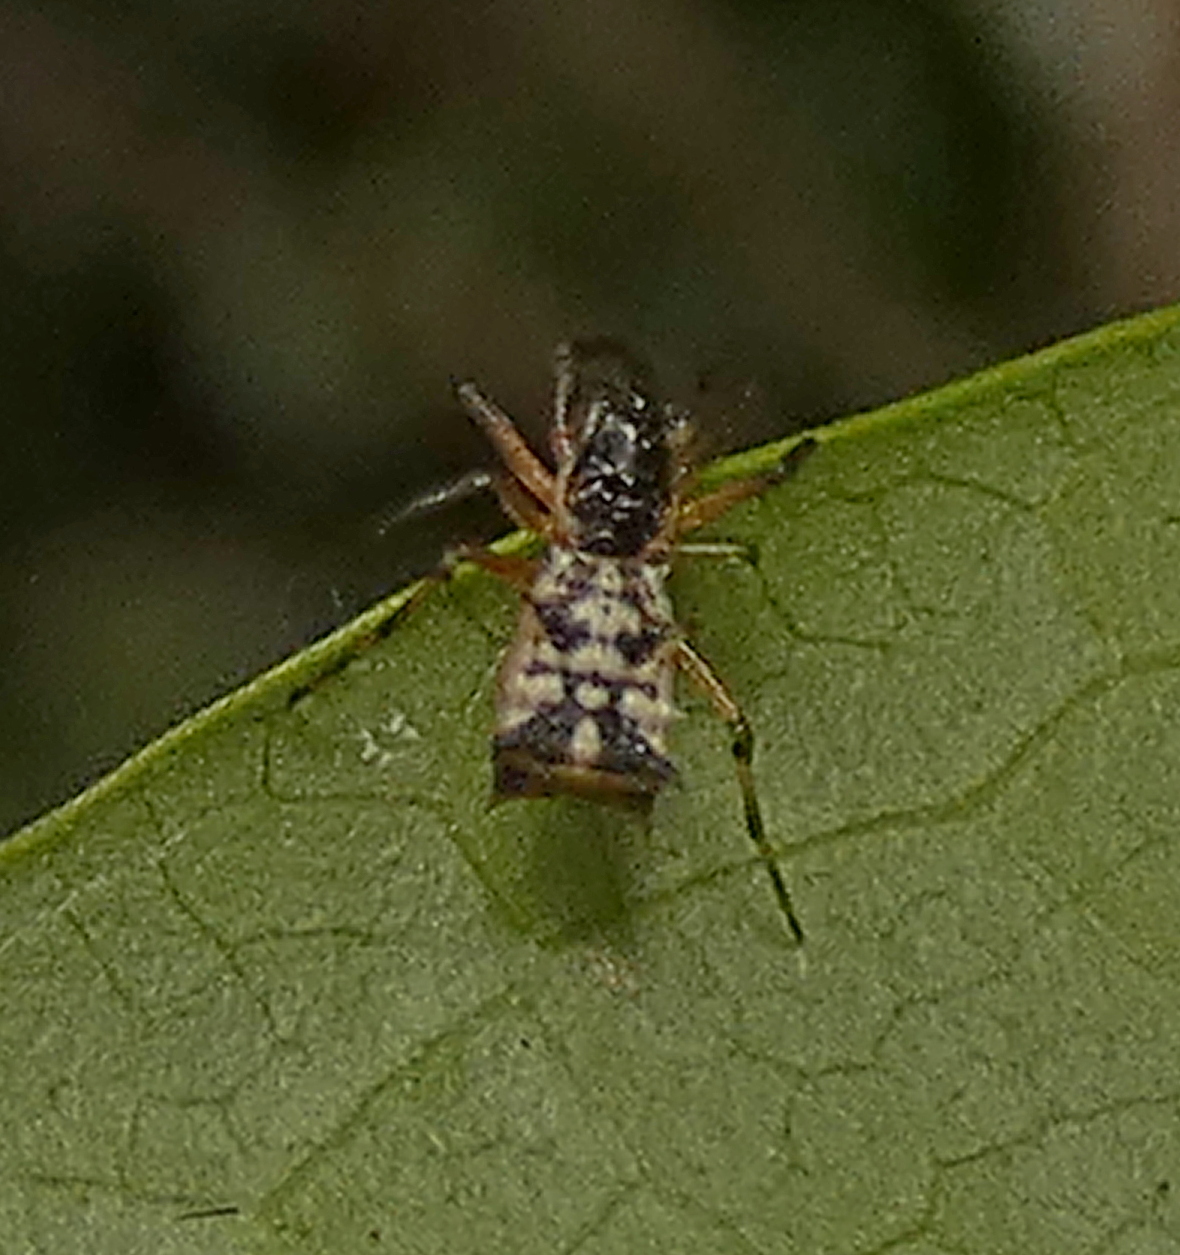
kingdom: Animalia
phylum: Arthropoda
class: Arachnida
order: Araneae
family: Araneidae
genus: Micrathena
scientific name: Micrathena picta
